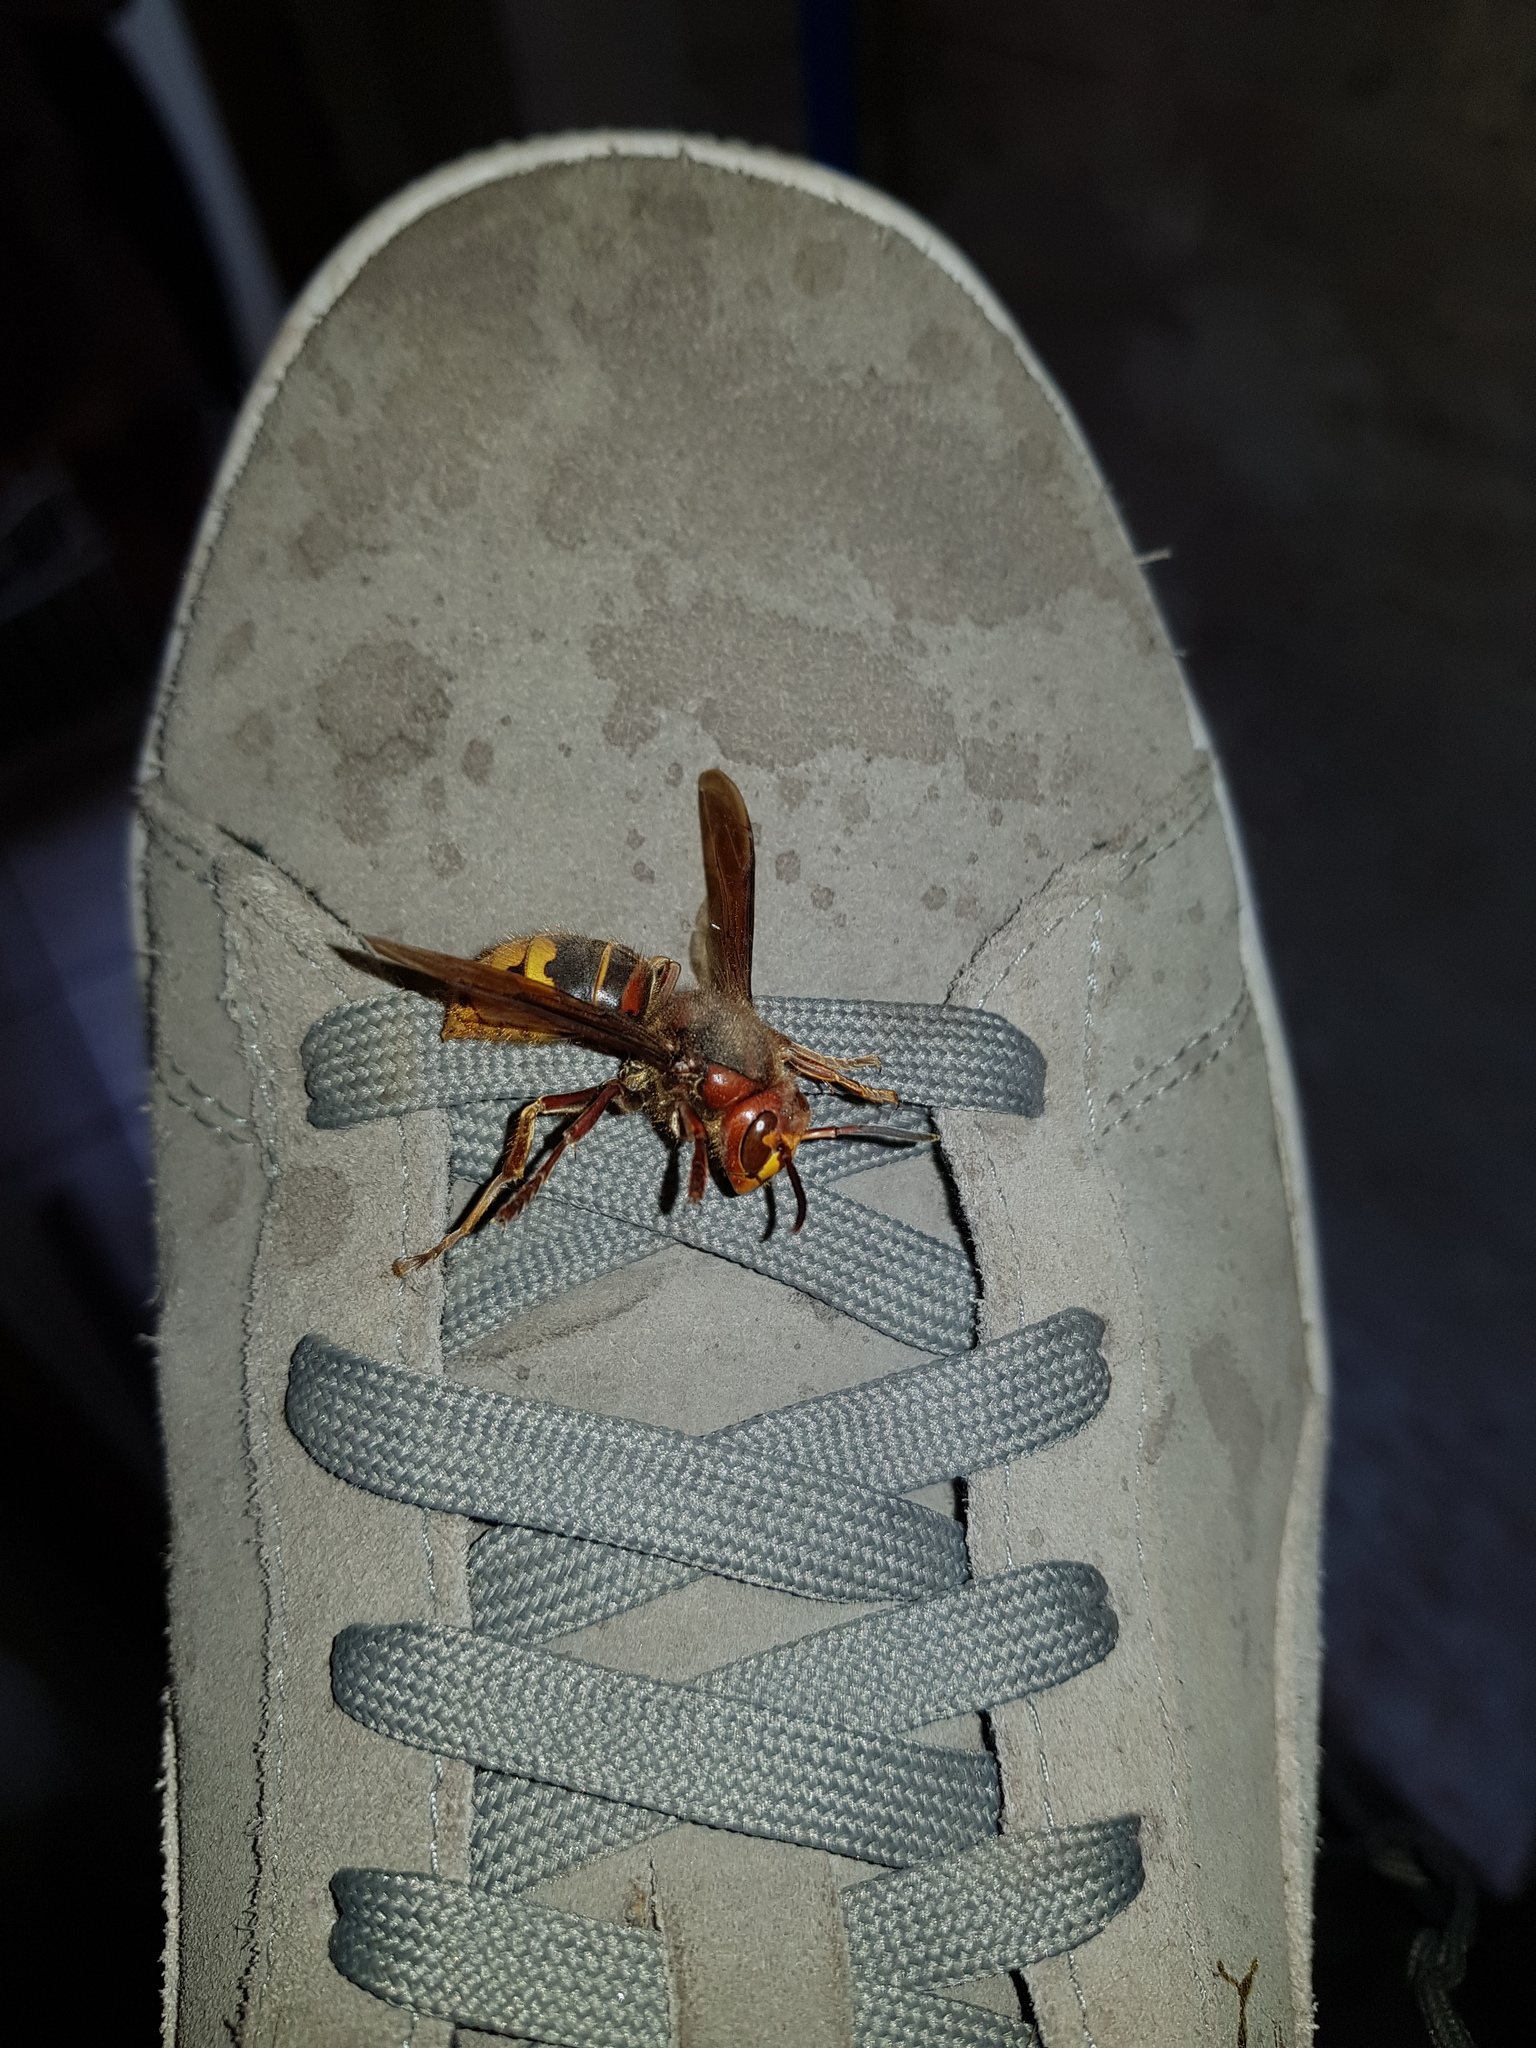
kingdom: Animalia
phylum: Arthropoda
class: Insecta
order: Hymenoptera
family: Vespidae
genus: Vespa
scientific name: Vespa crabro
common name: Hornet
